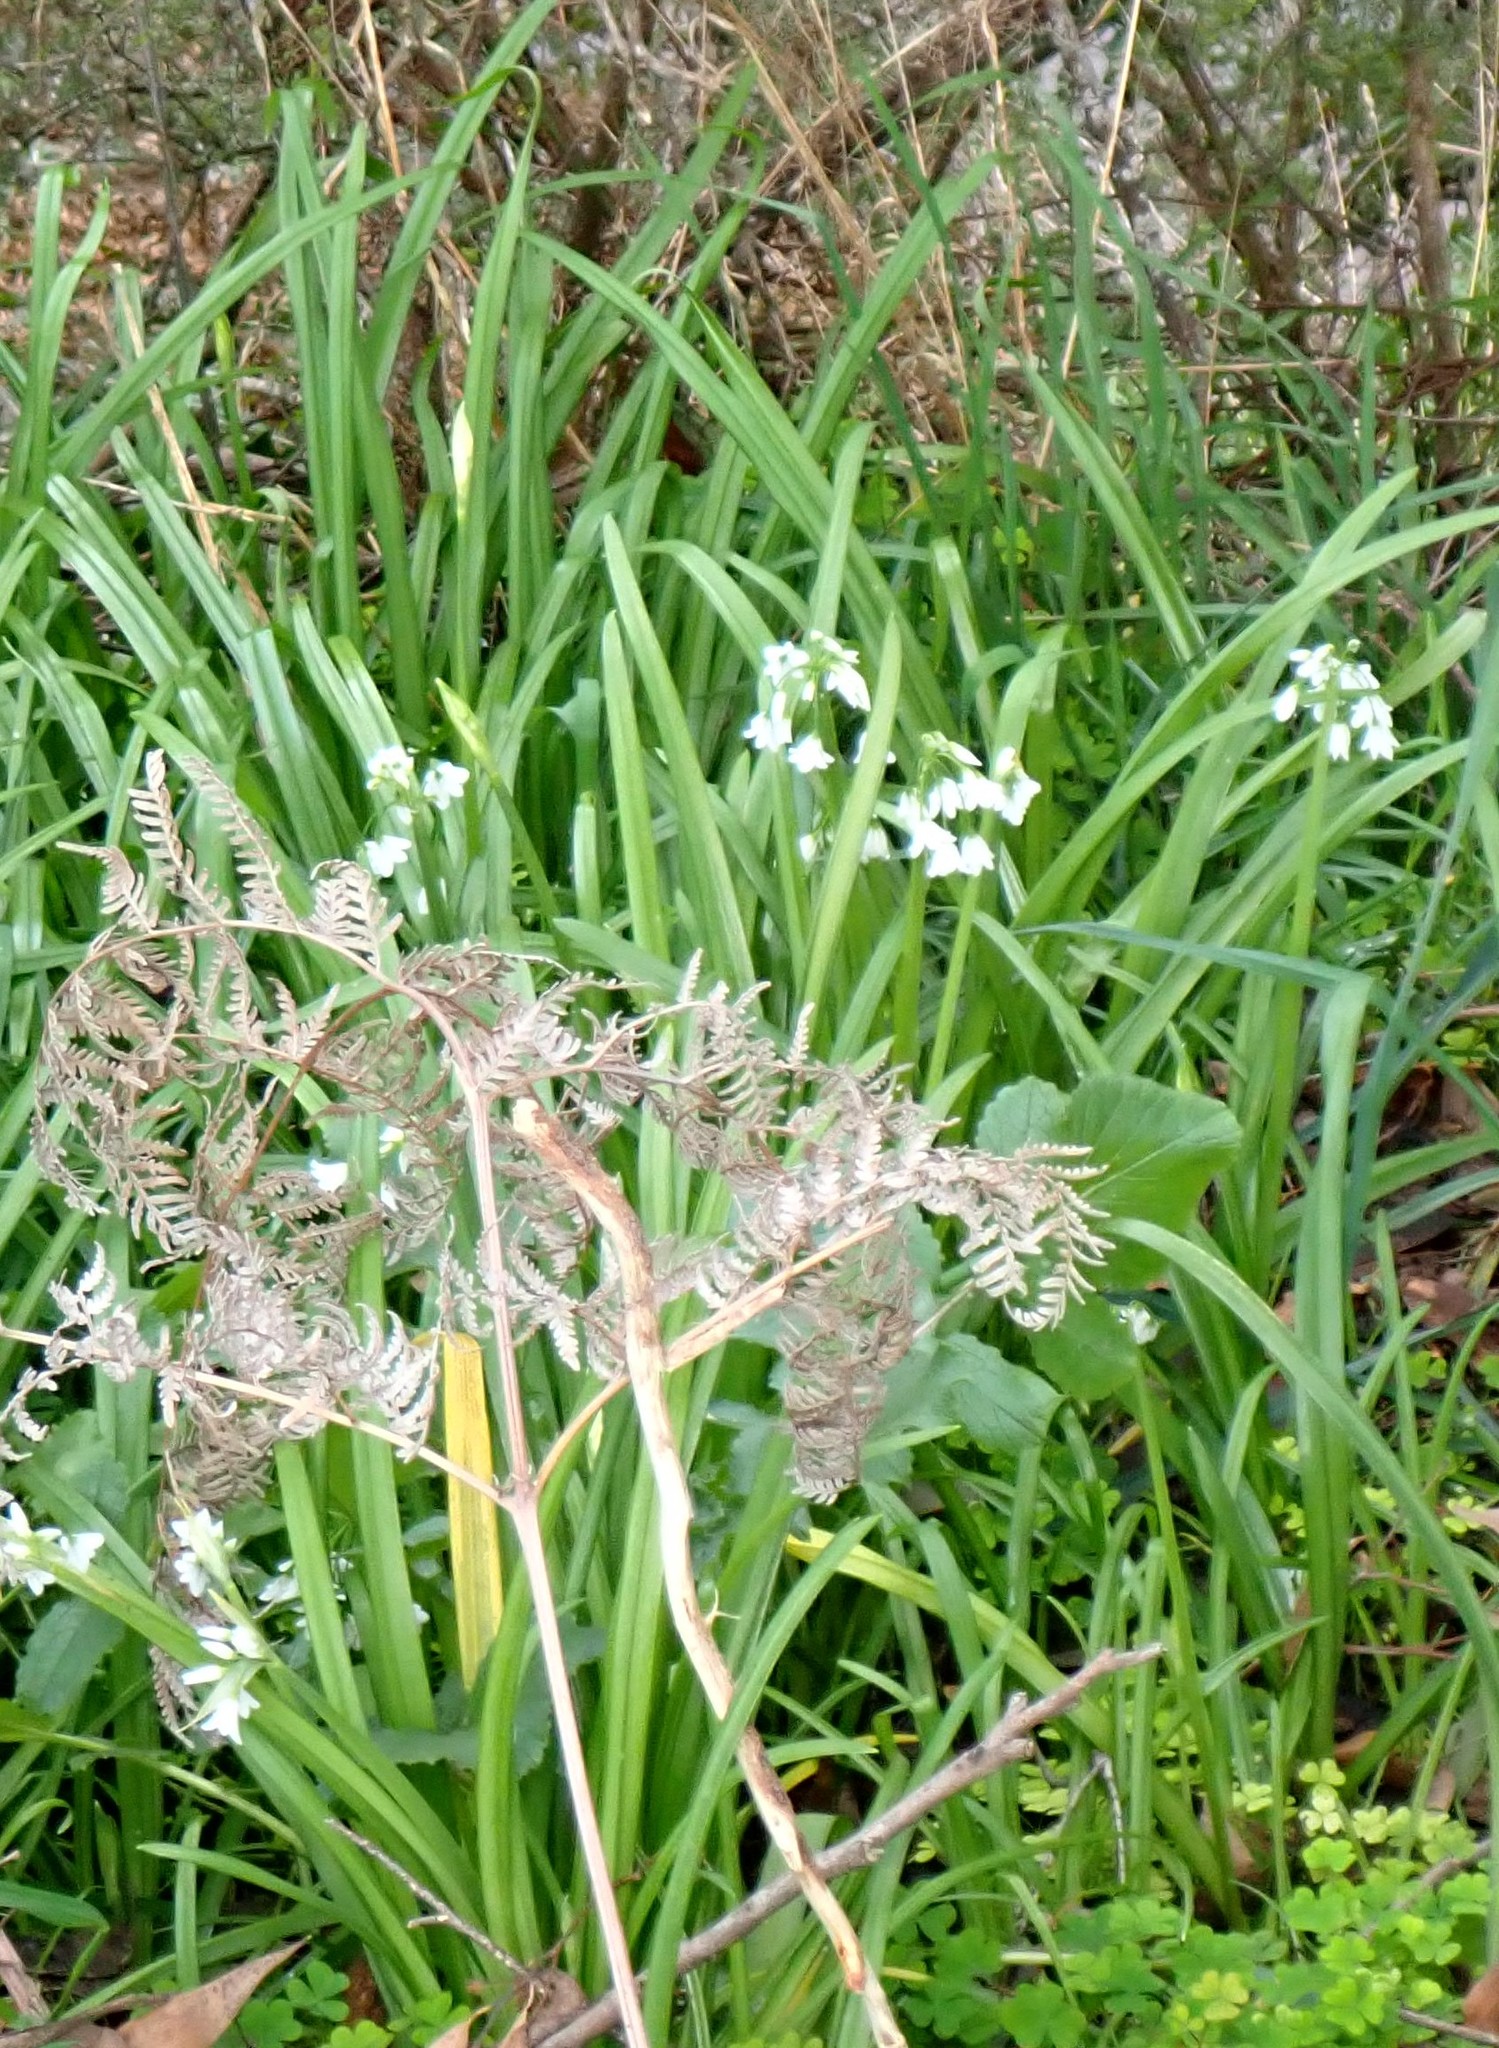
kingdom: Plantae
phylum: Tracheophyta
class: Liliopsida
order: Asparagales
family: Amaryllidaceae
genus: Allium
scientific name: Allium triquetrum
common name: Three-cornered garlic
